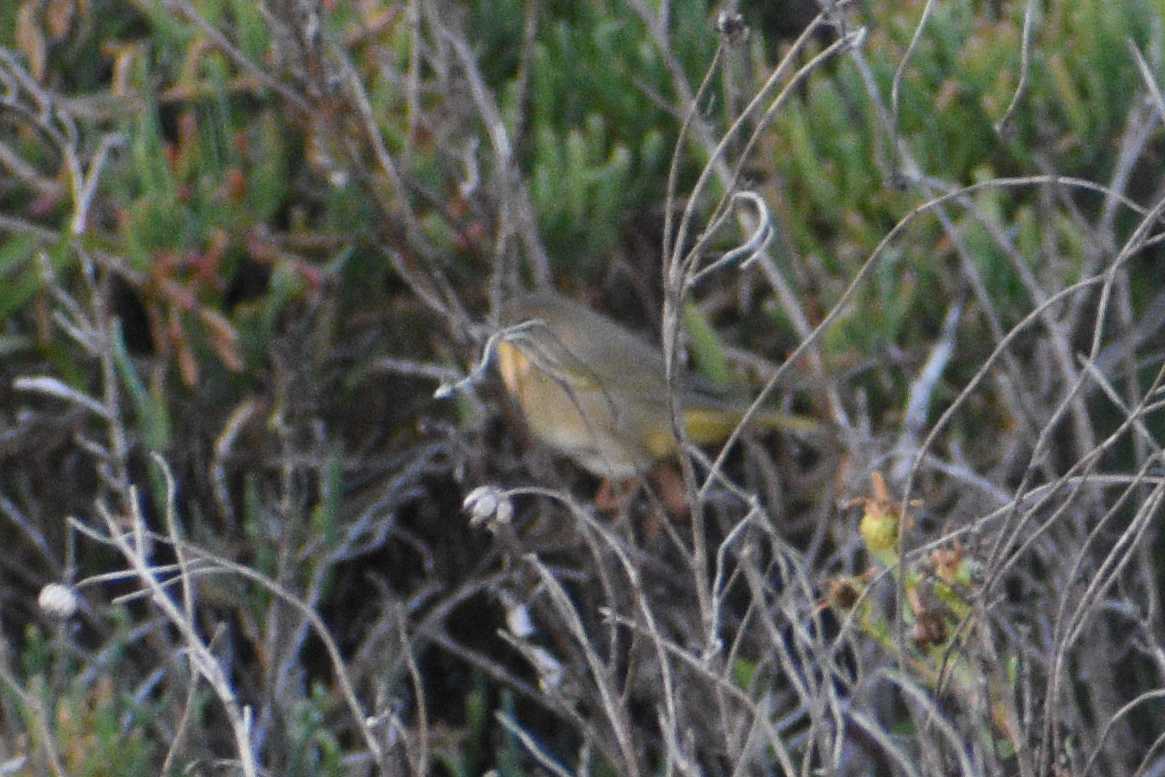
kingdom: Animalia
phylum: Chordata
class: Aves
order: Passeriformes
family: Parulidae
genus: Geothlypis
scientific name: Geothlypis trichas
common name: Common yellowthroat
